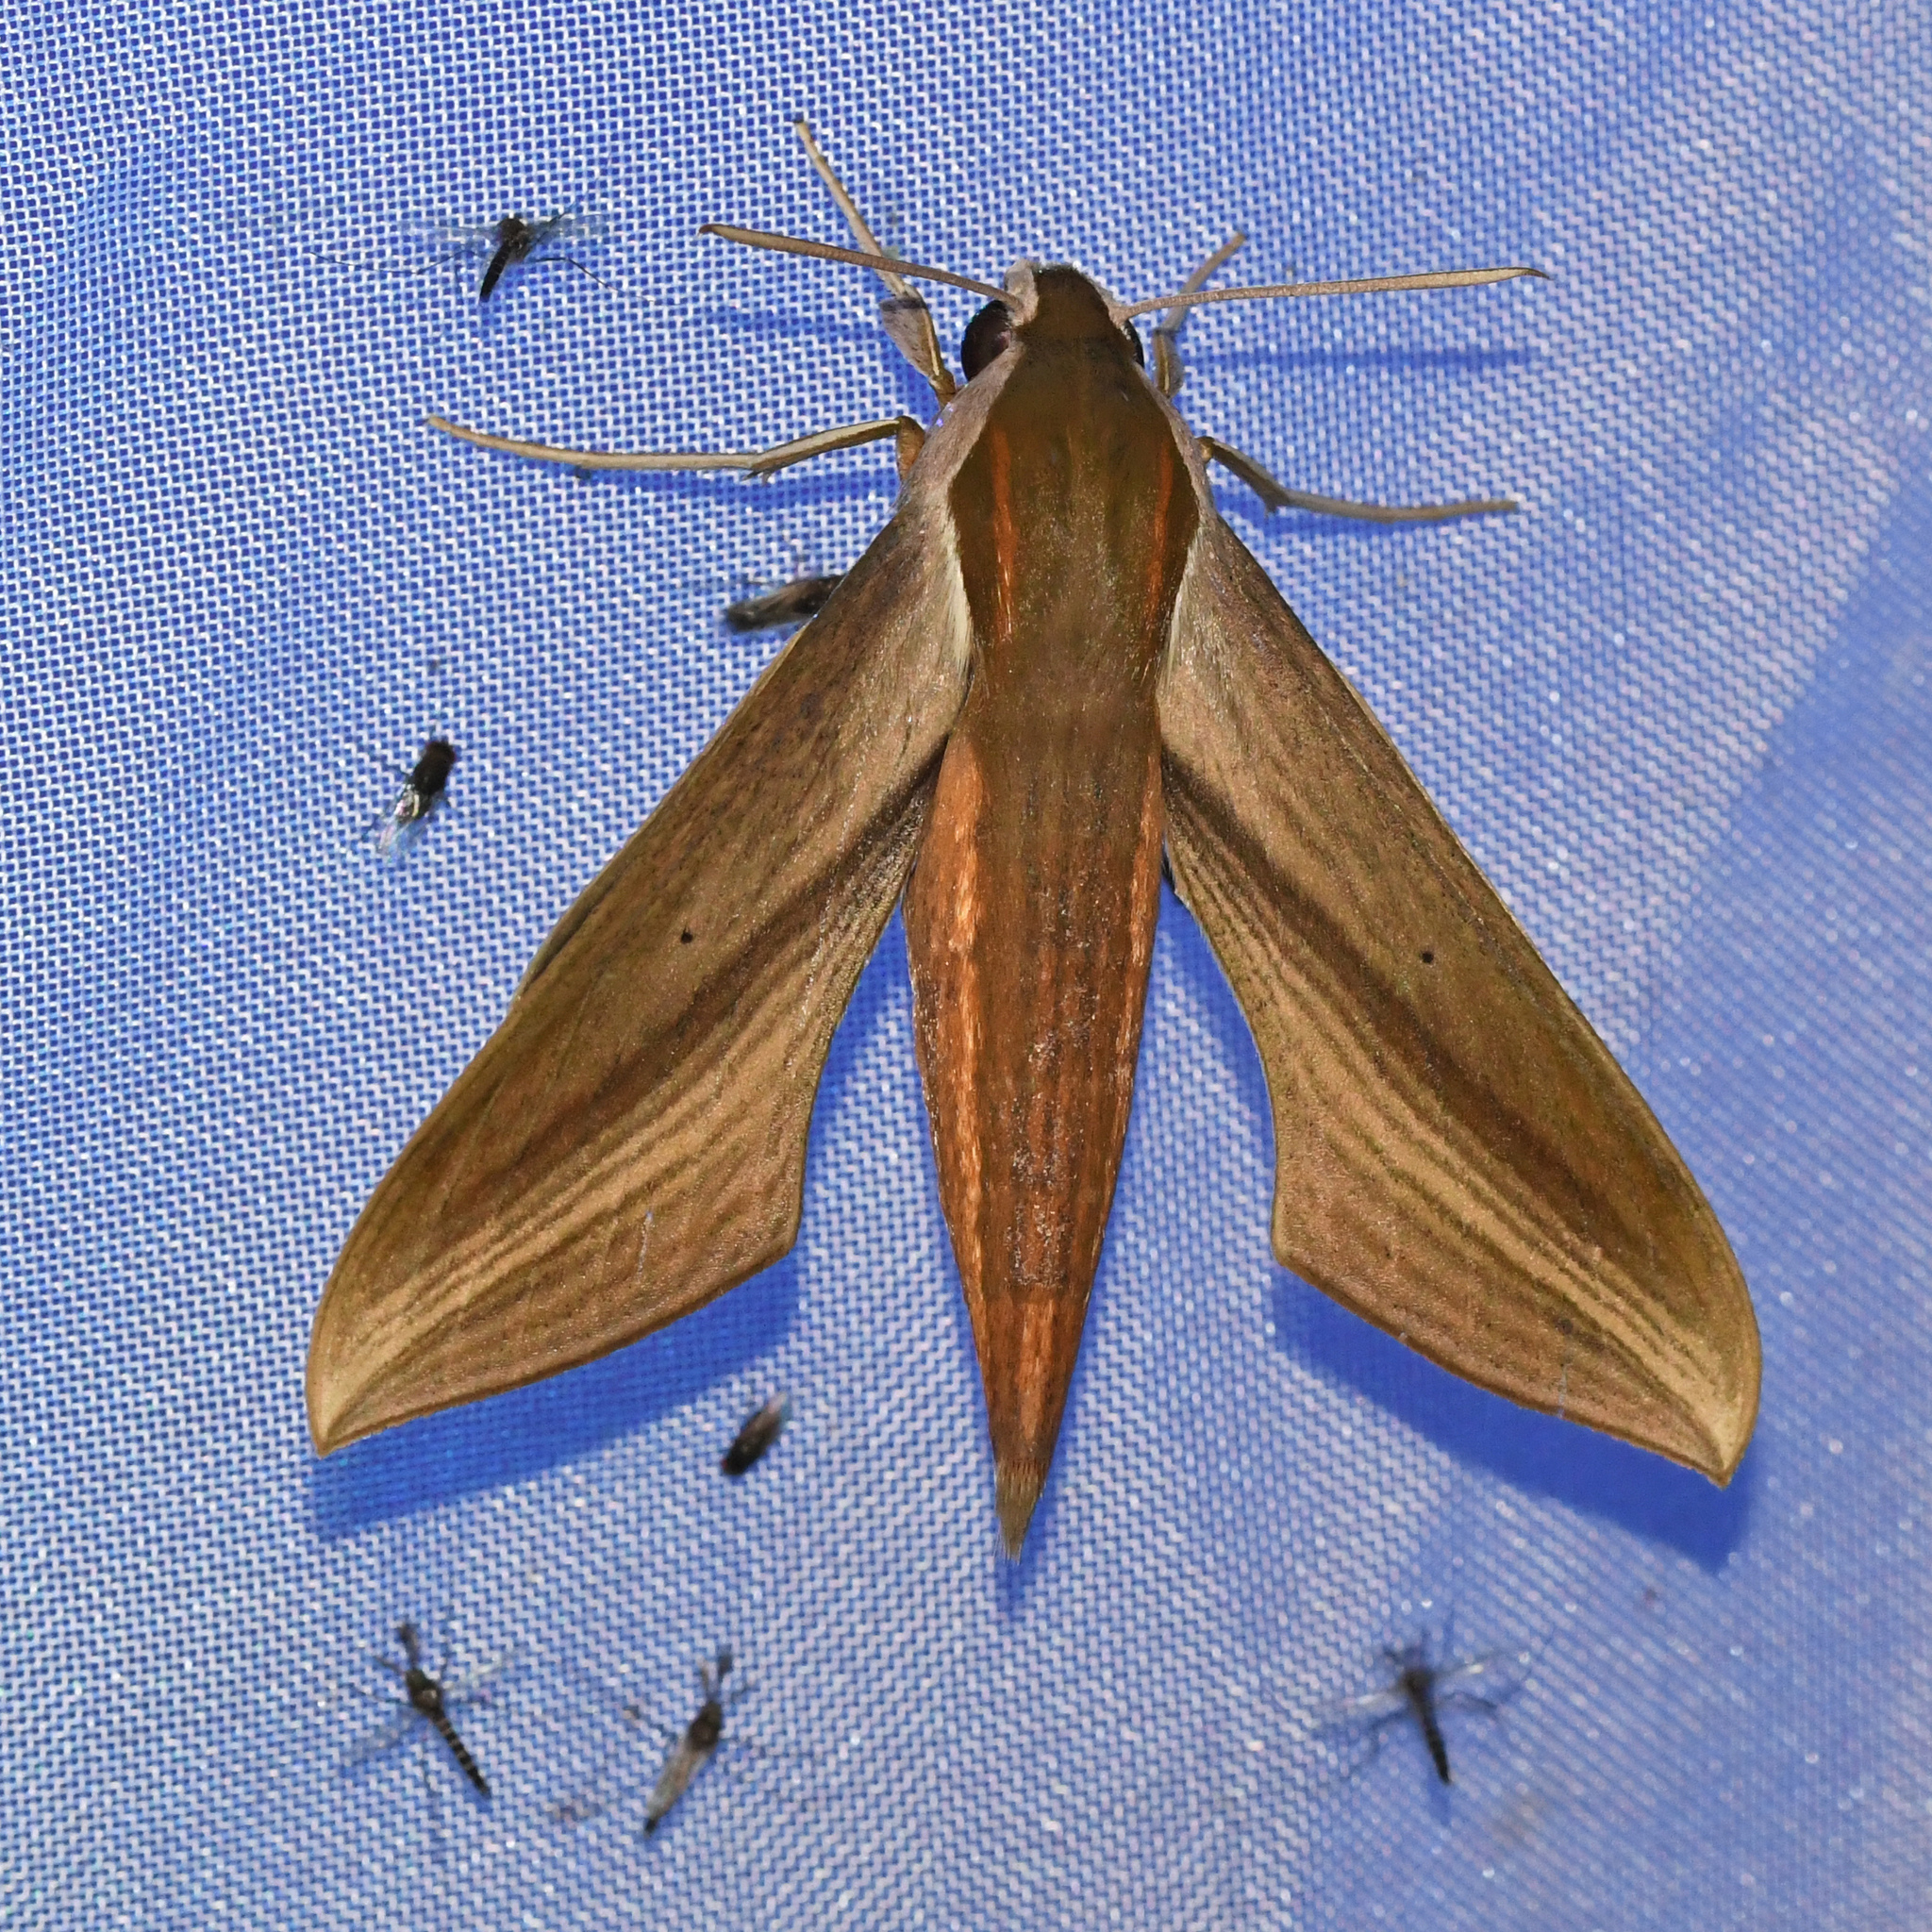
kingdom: Animalia
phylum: Arthropoda
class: Insecta
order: Lepidoptera
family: Sphingidae
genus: Xylophanes
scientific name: Xylophanes tersa
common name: Tersa sphinx
